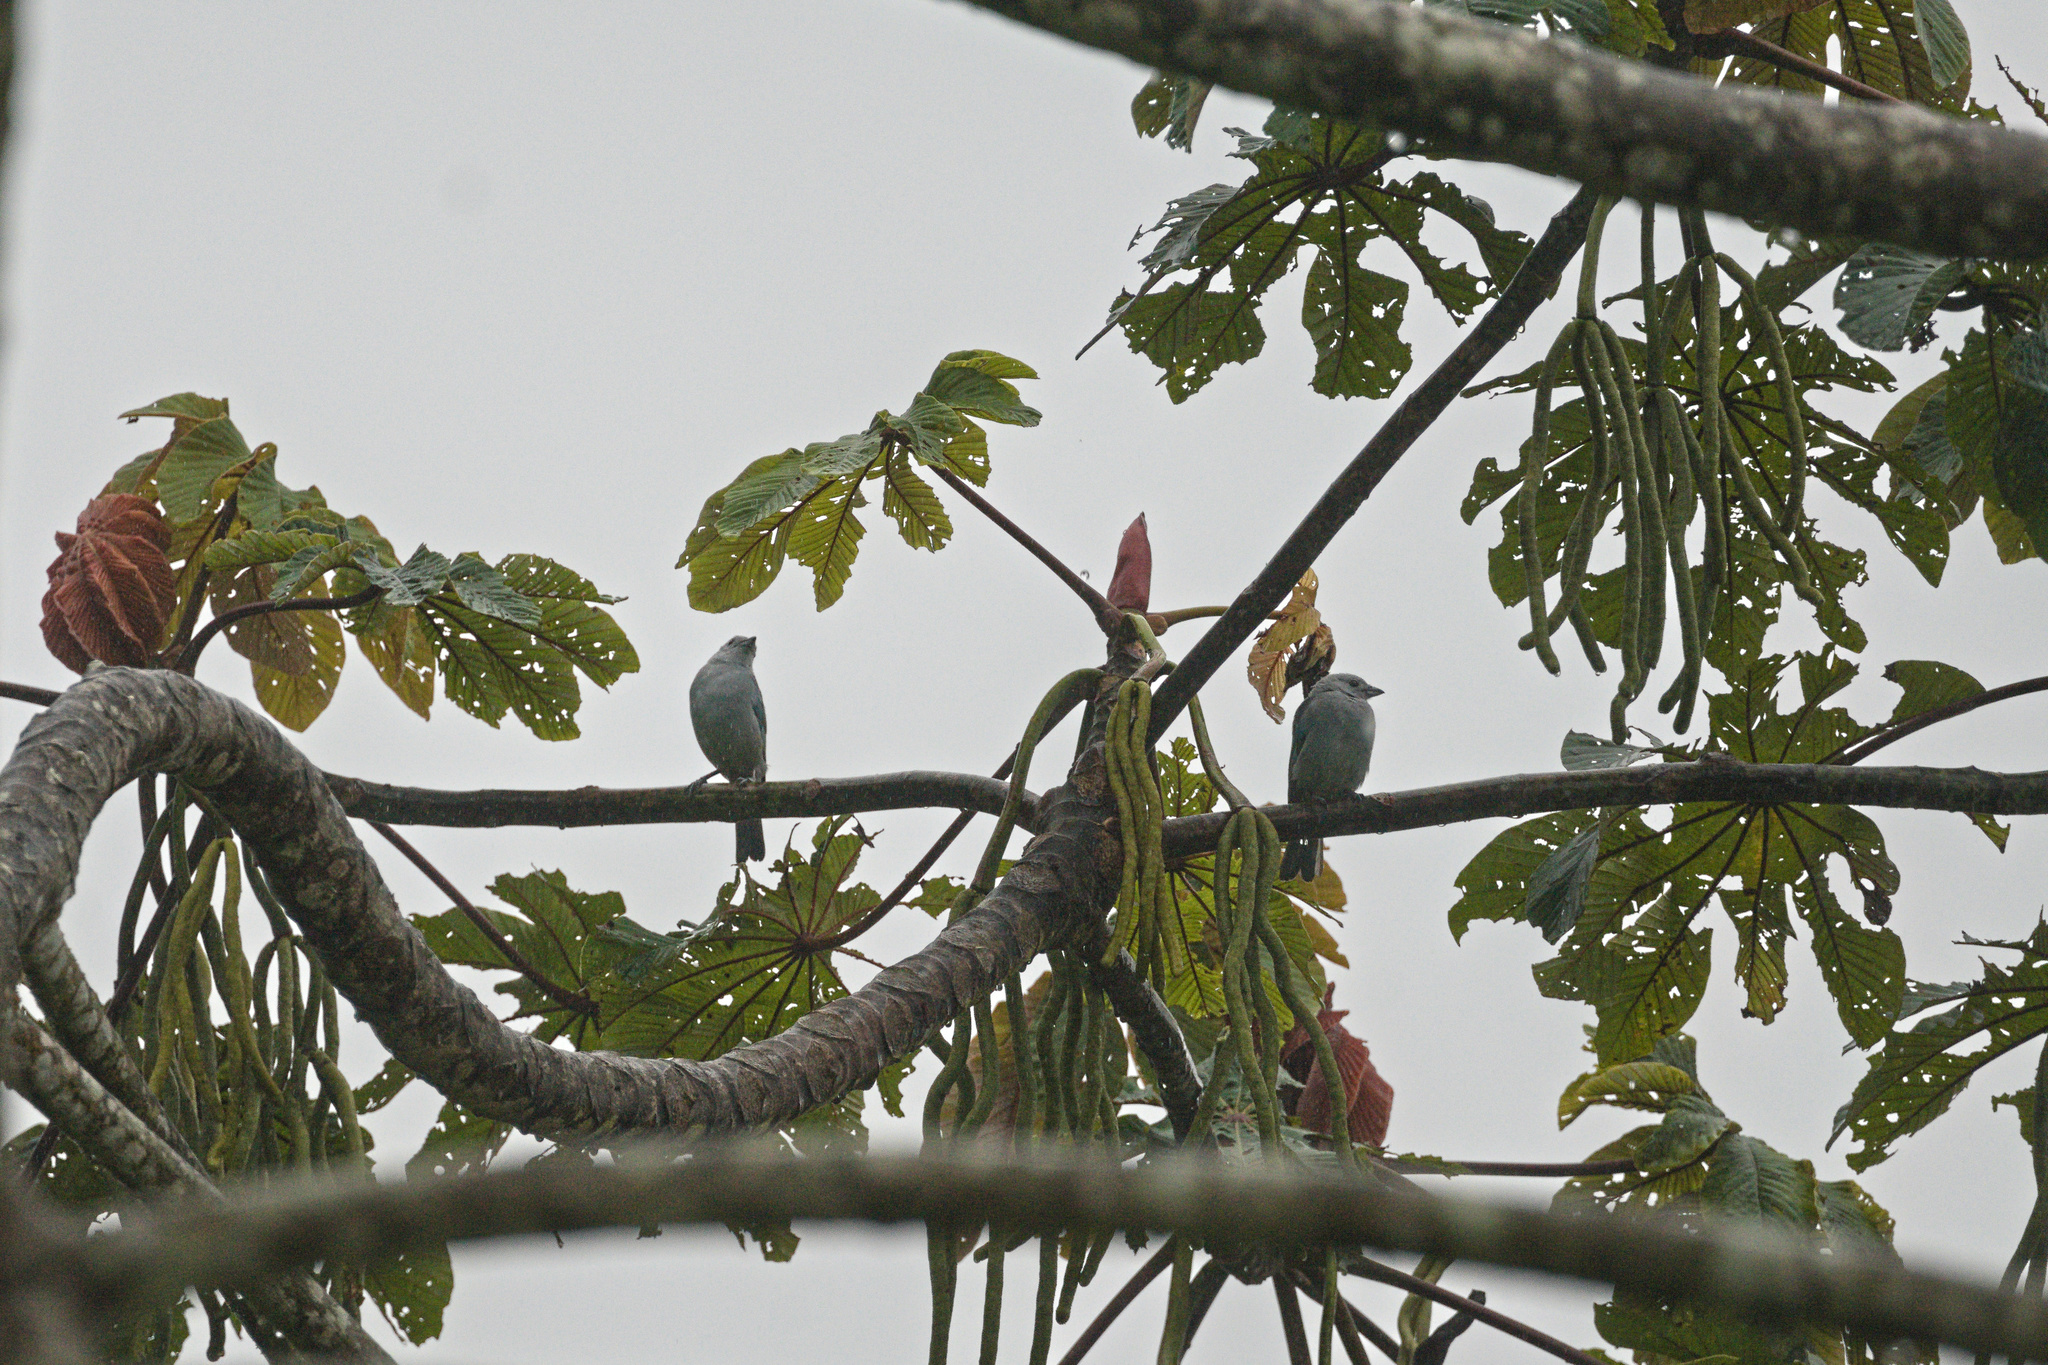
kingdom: Animalia
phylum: Chordata
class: Aves
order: Passeriformes
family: Thraupidae
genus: Thraupis
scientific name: Thraupis episcopus
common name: Blue-grey tanager
